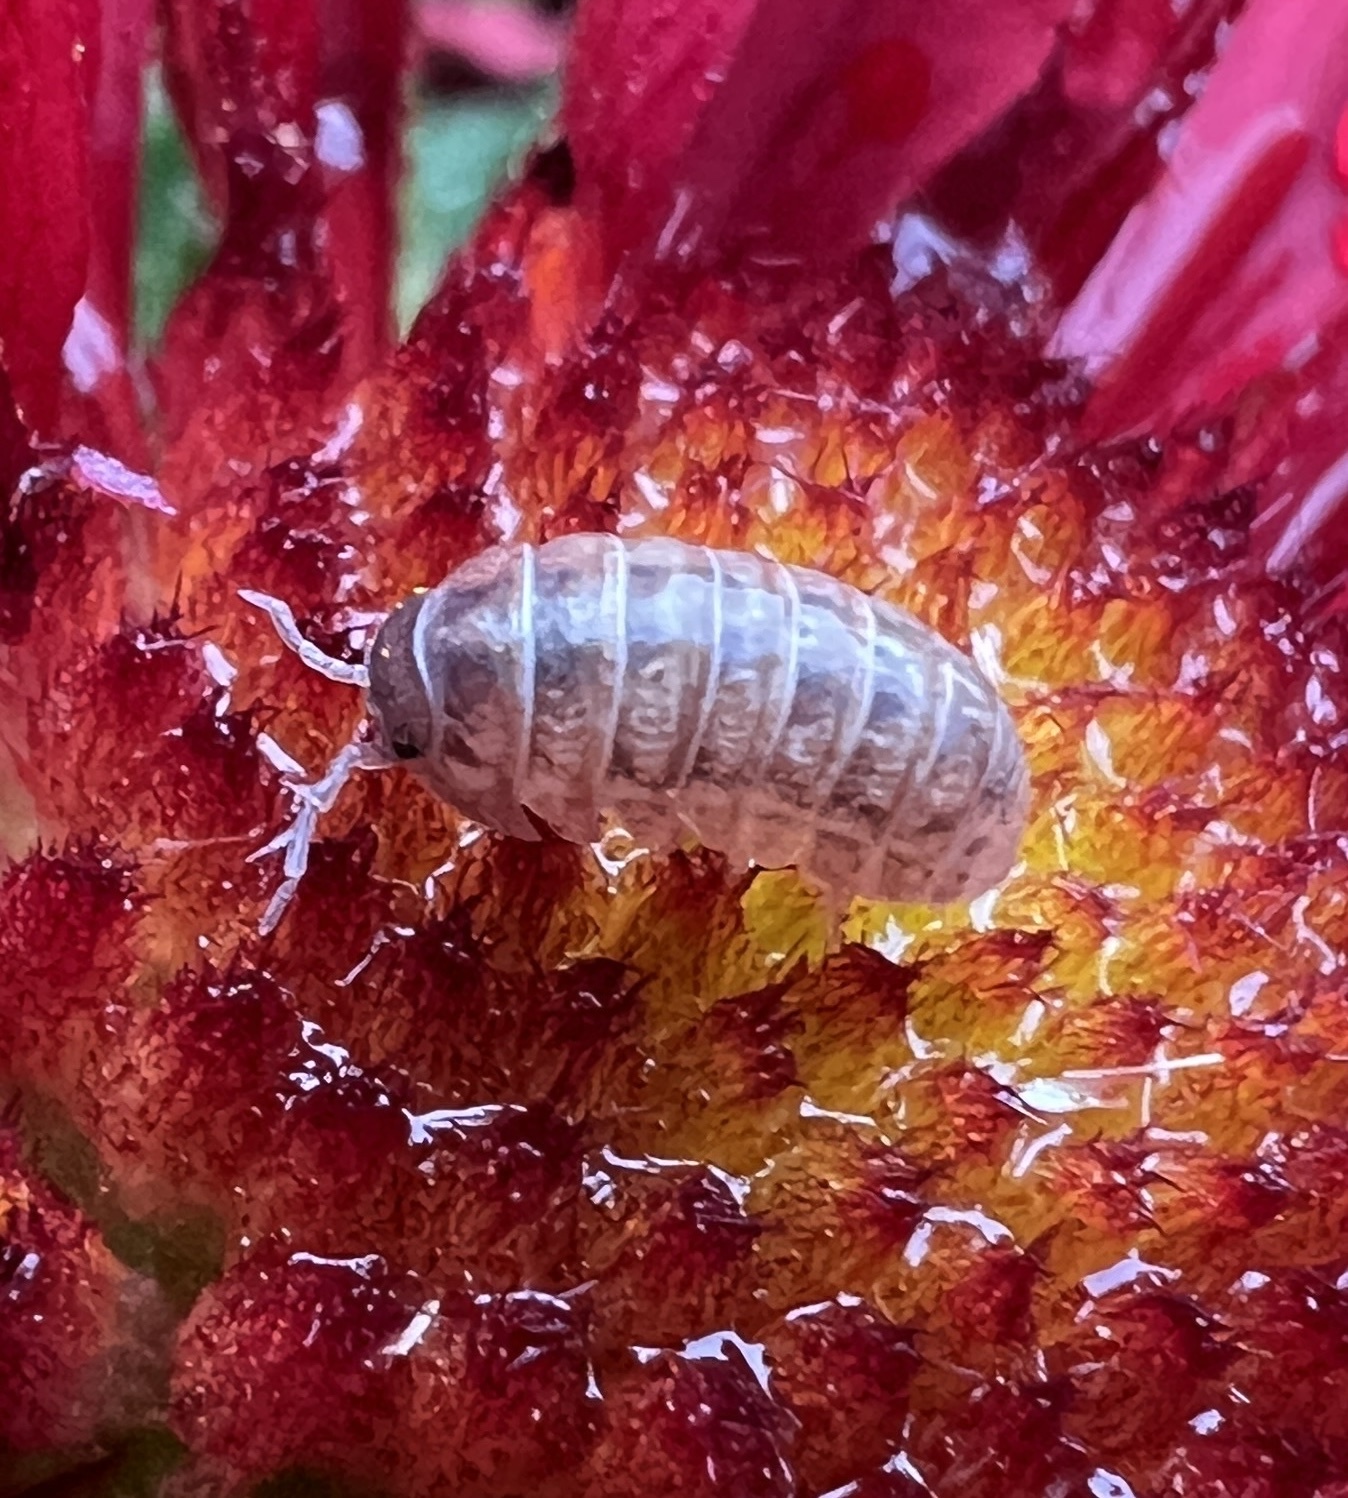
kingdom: Animalia
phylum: Arthropoda
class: Malacostraca
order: Isopoda
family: Armadillidiidae
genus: Armadillidium
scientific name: Armadillidium vulgare
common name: Common pill woodlouse
